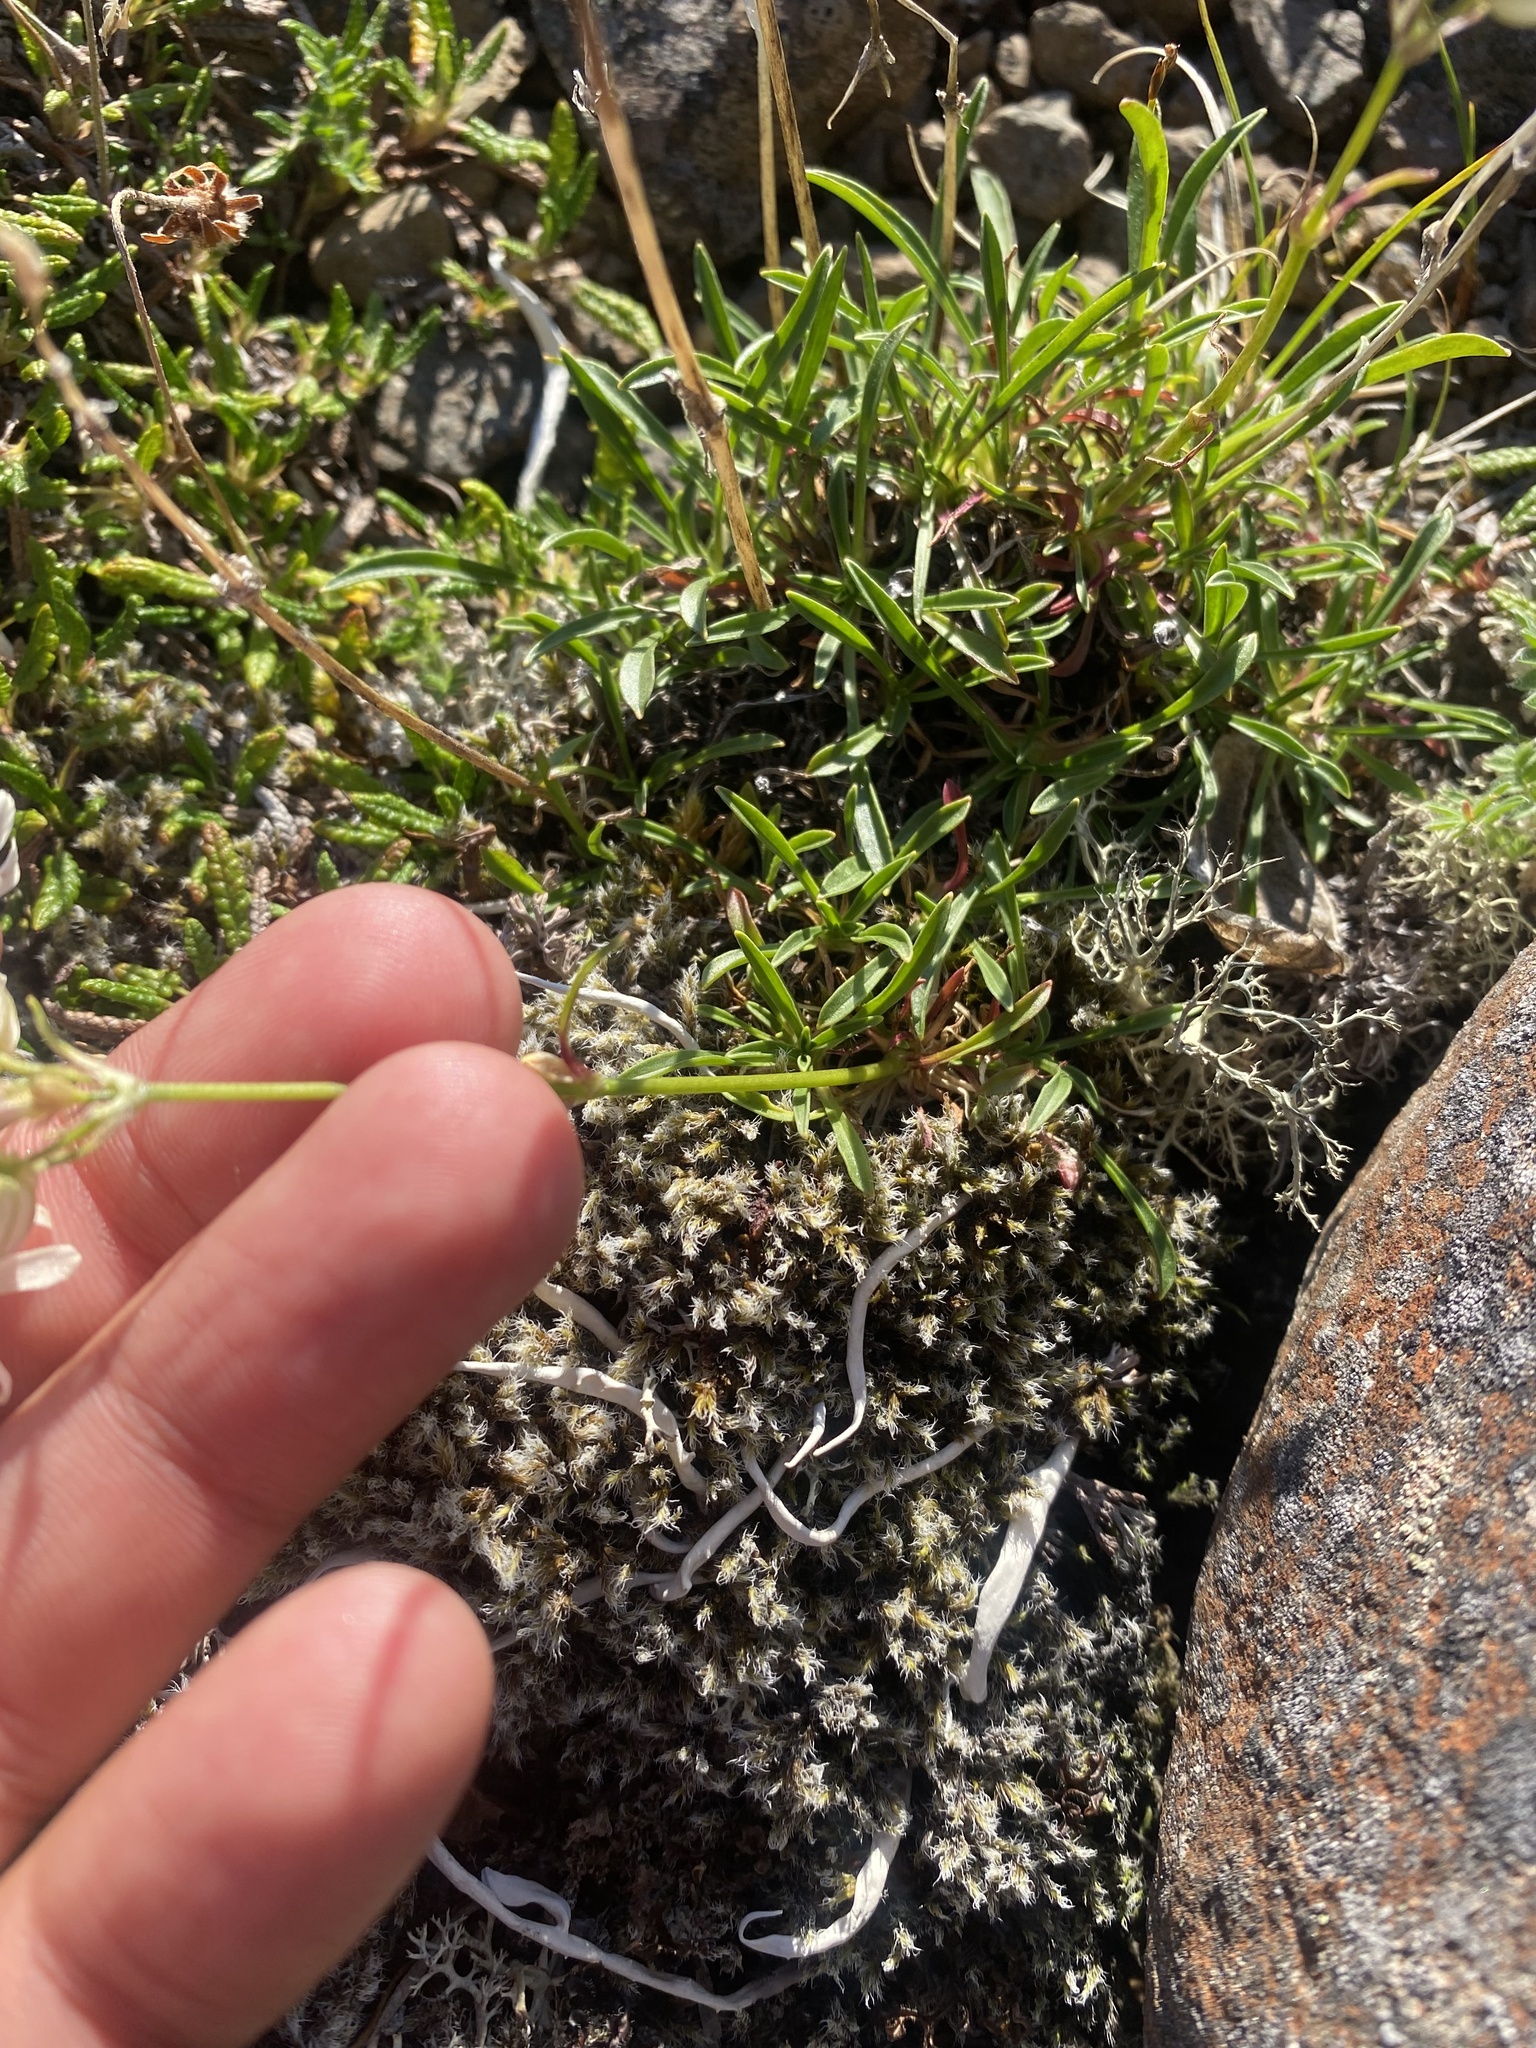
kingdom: Plantae
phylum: Tracheophyta
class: Magnoliopsida
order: Caryophyllales
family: Caryophyllaceae
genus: Silene
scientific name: Silene chamarensis
